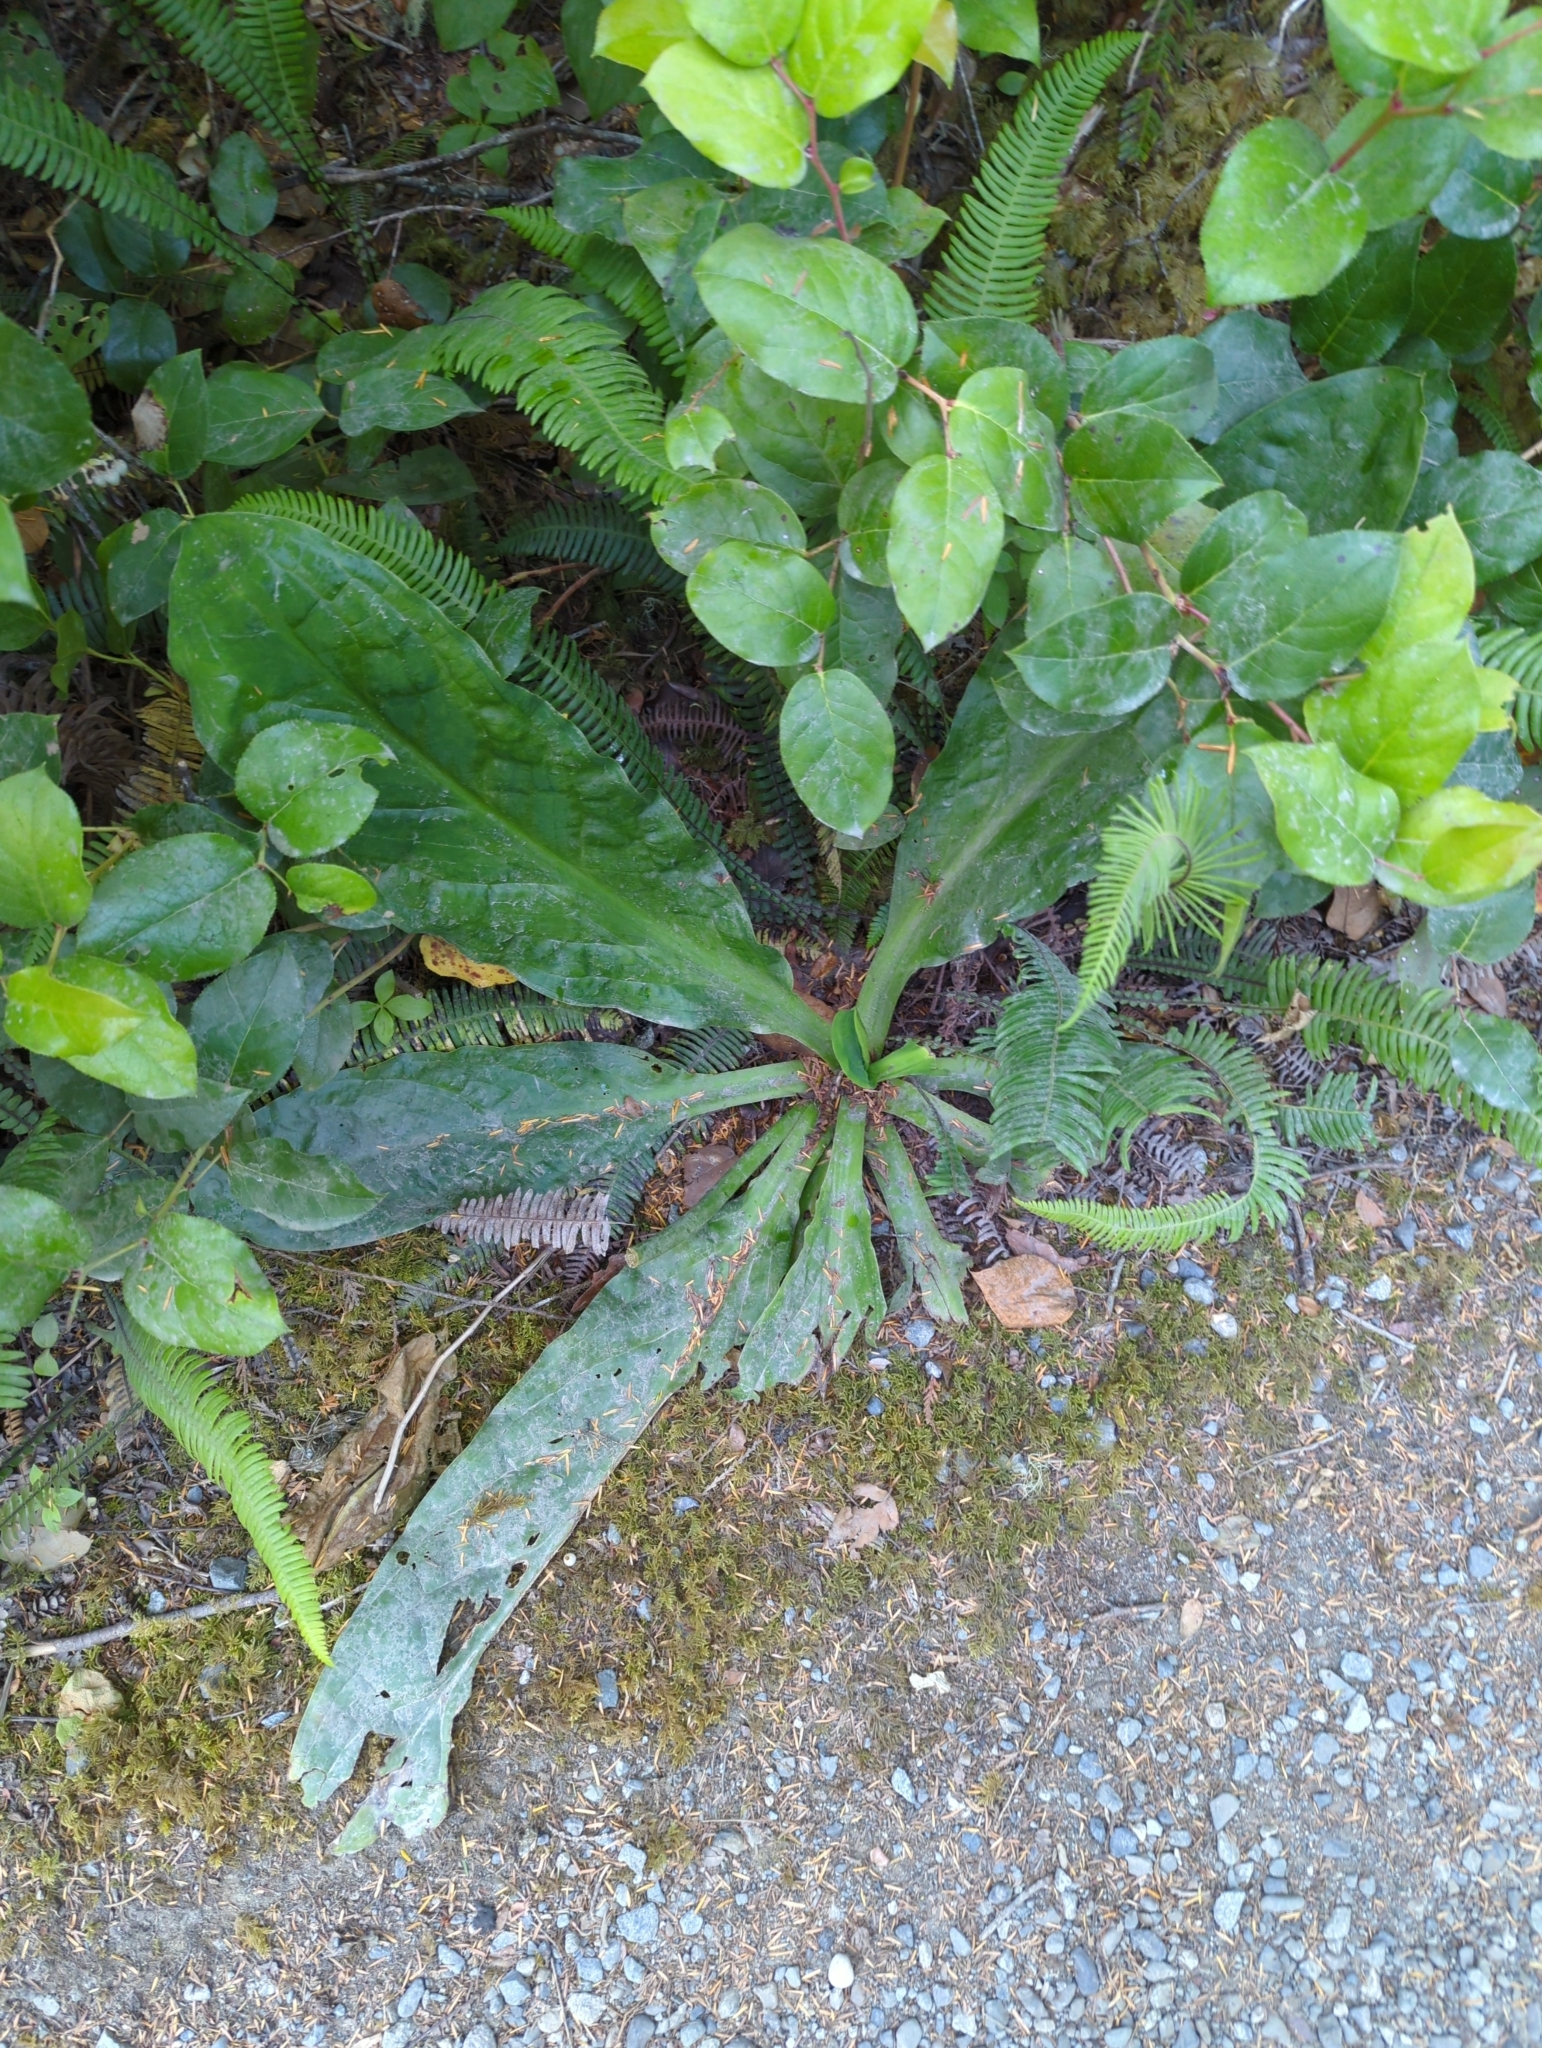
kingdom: Plantae
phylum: Tracheophyta
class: Liliopsida
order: Alismatales
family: Araceae
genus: Lysichiton
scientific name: Lysichiton americanus
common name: American skunk cabbage
